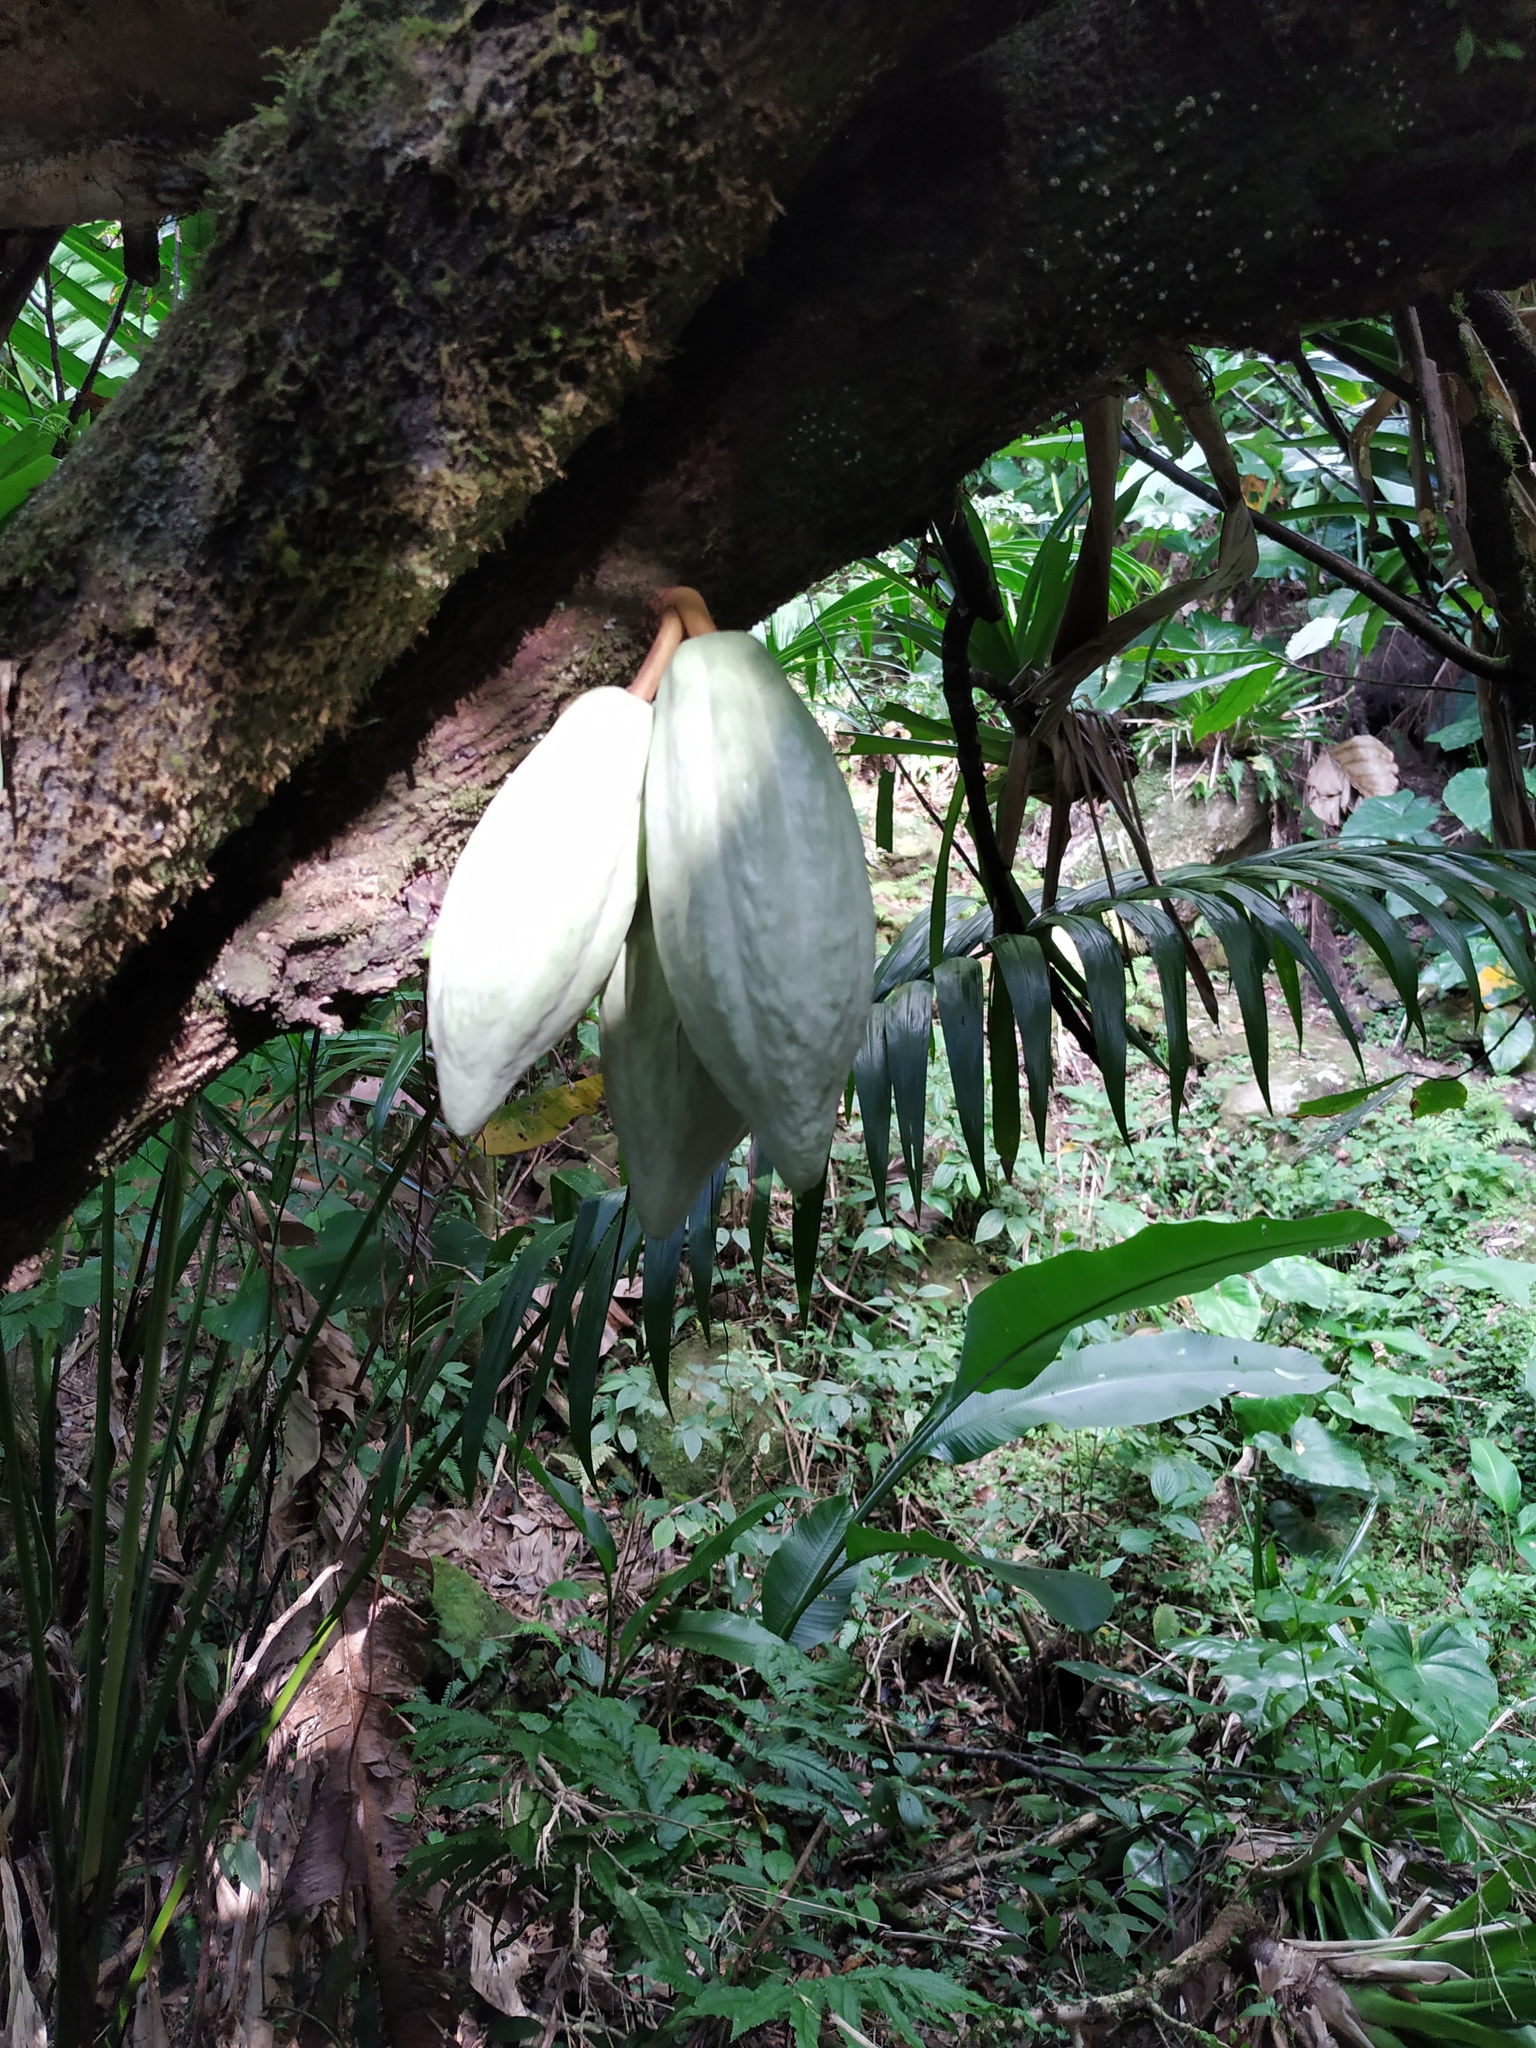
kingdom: Plantae
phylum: Tracheophyta
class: Magnoliopsida
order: Malvales
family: Malvaceae
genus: Theobroma
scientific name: Theobroma cacao
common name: Cocoa
